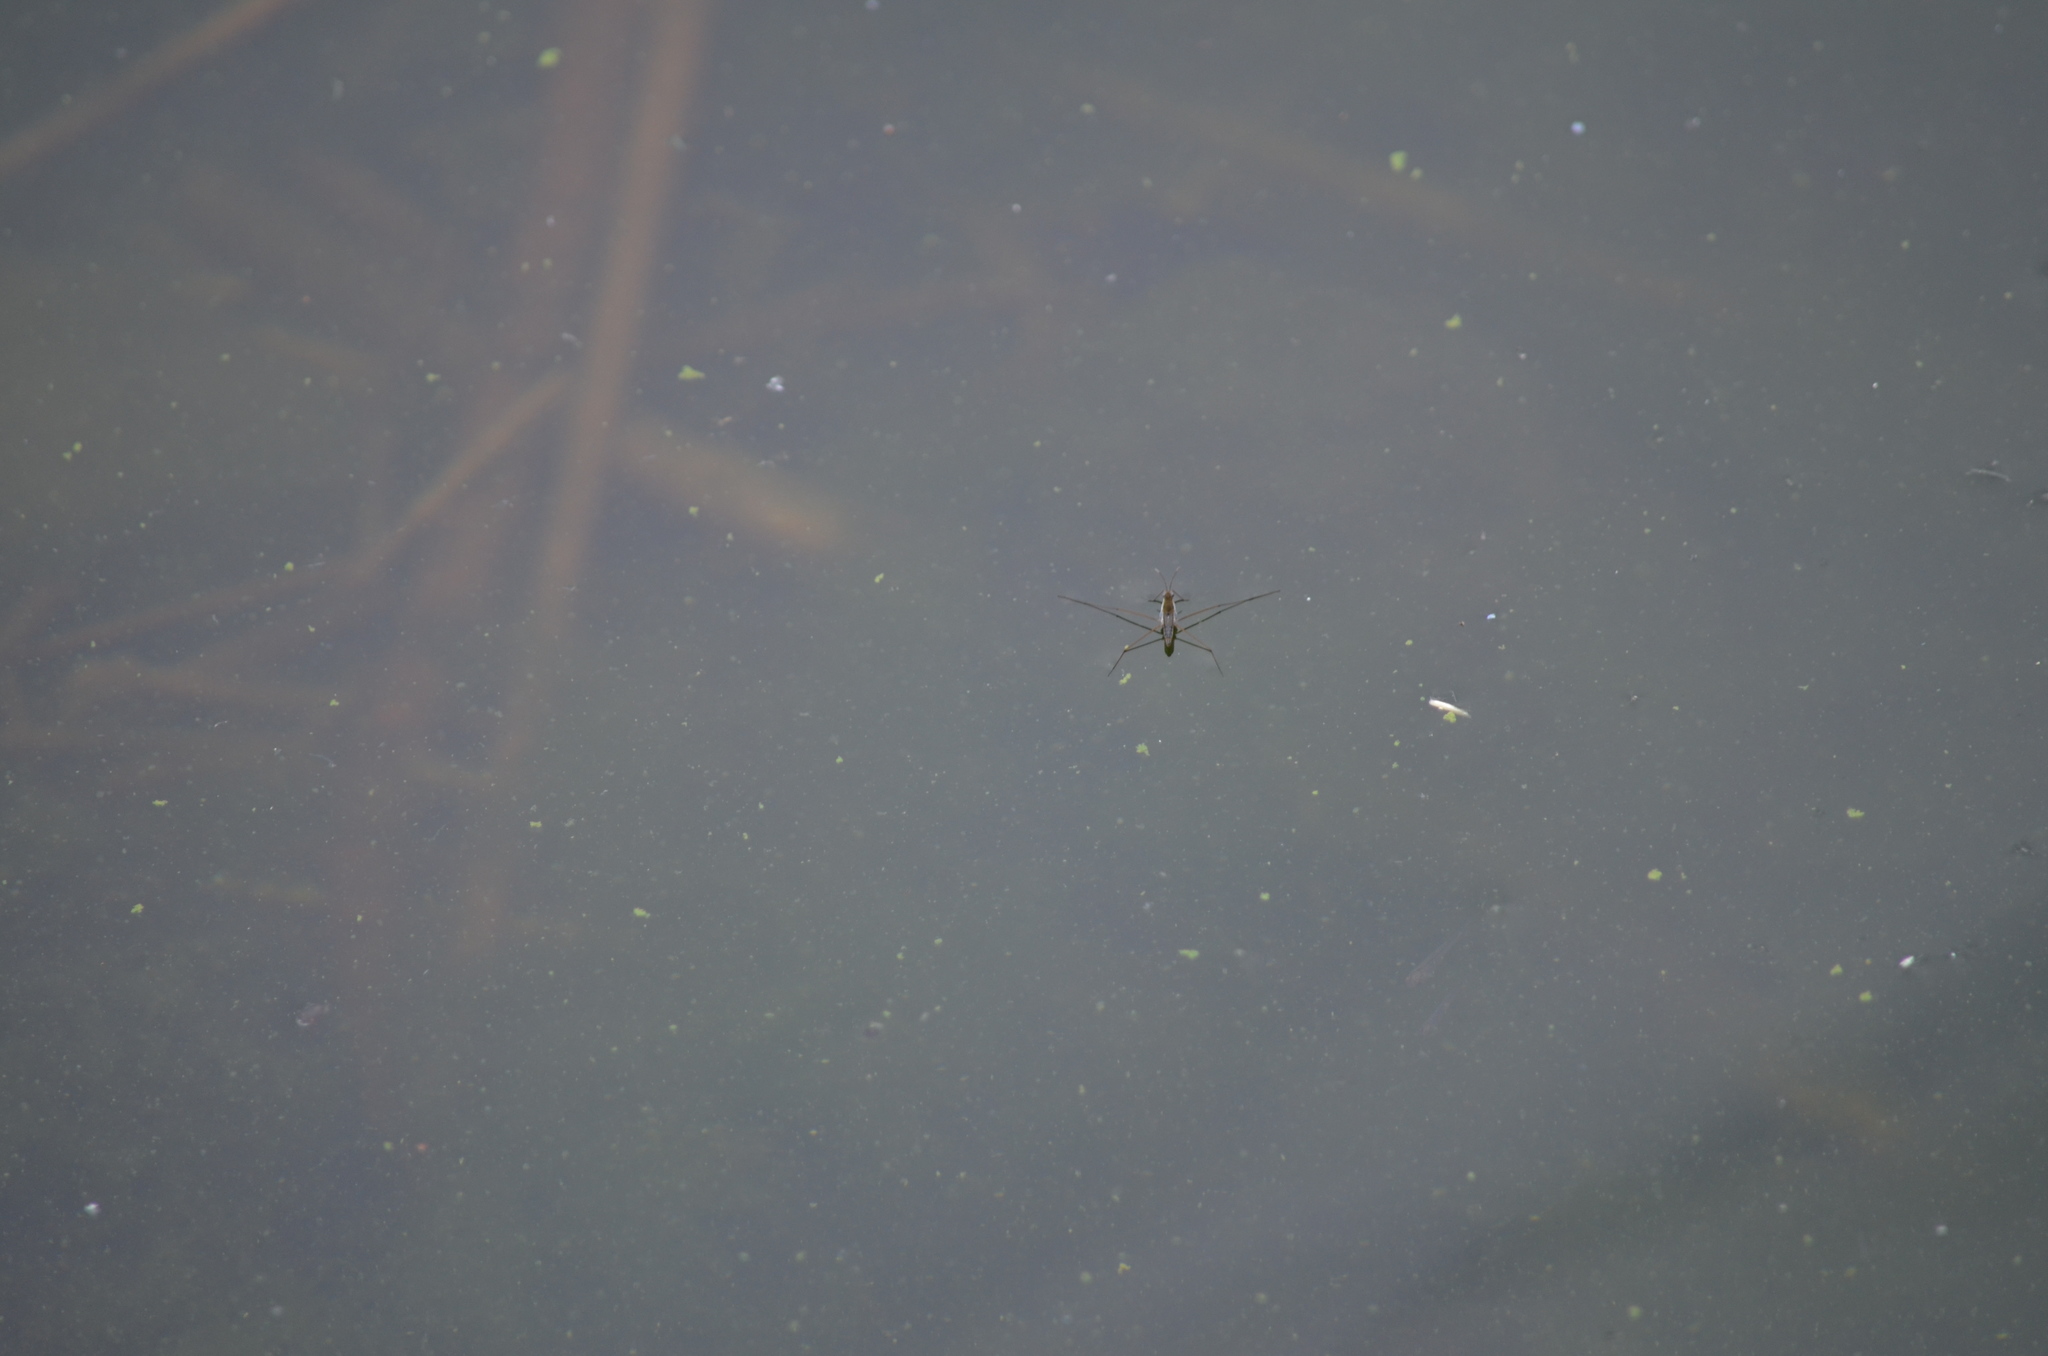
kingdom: Animalia
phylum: Arthropoda
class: Insecta
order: Hemiptera
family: Gerridae
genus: Gerris
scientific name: Gerris
